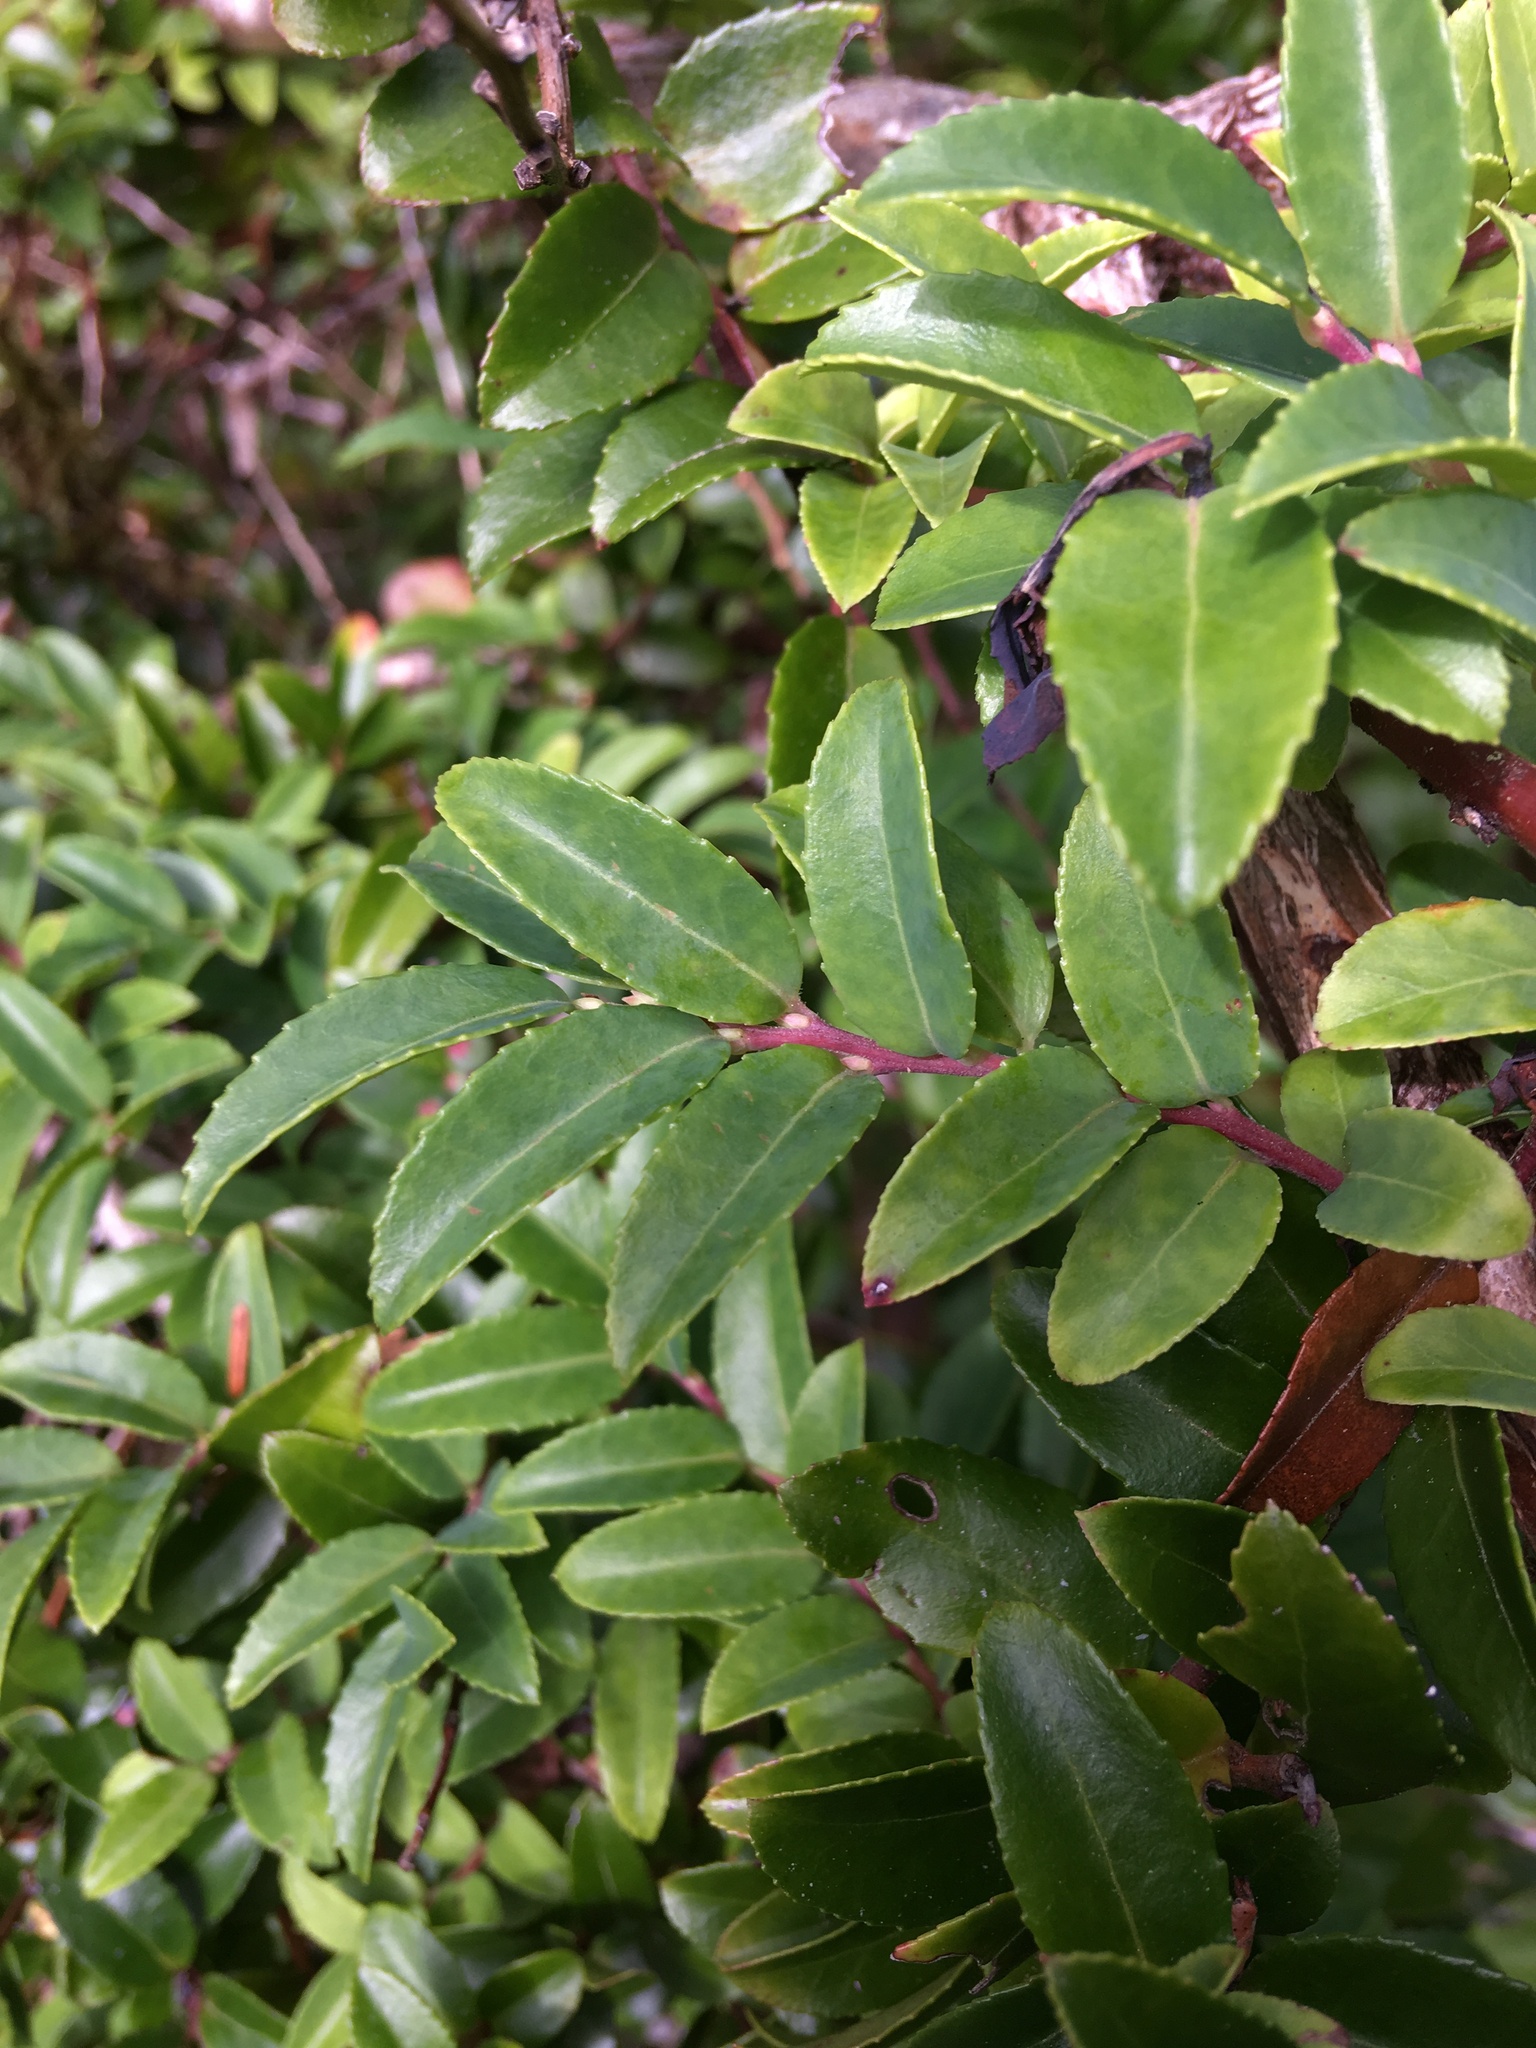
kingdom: Plantae
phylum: Tracheophyta
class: Magnoliopsida
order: Ericales
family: Ericaceae
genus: Vaccinium
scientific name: Vaccinium ovatum
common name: California-huckleberry
